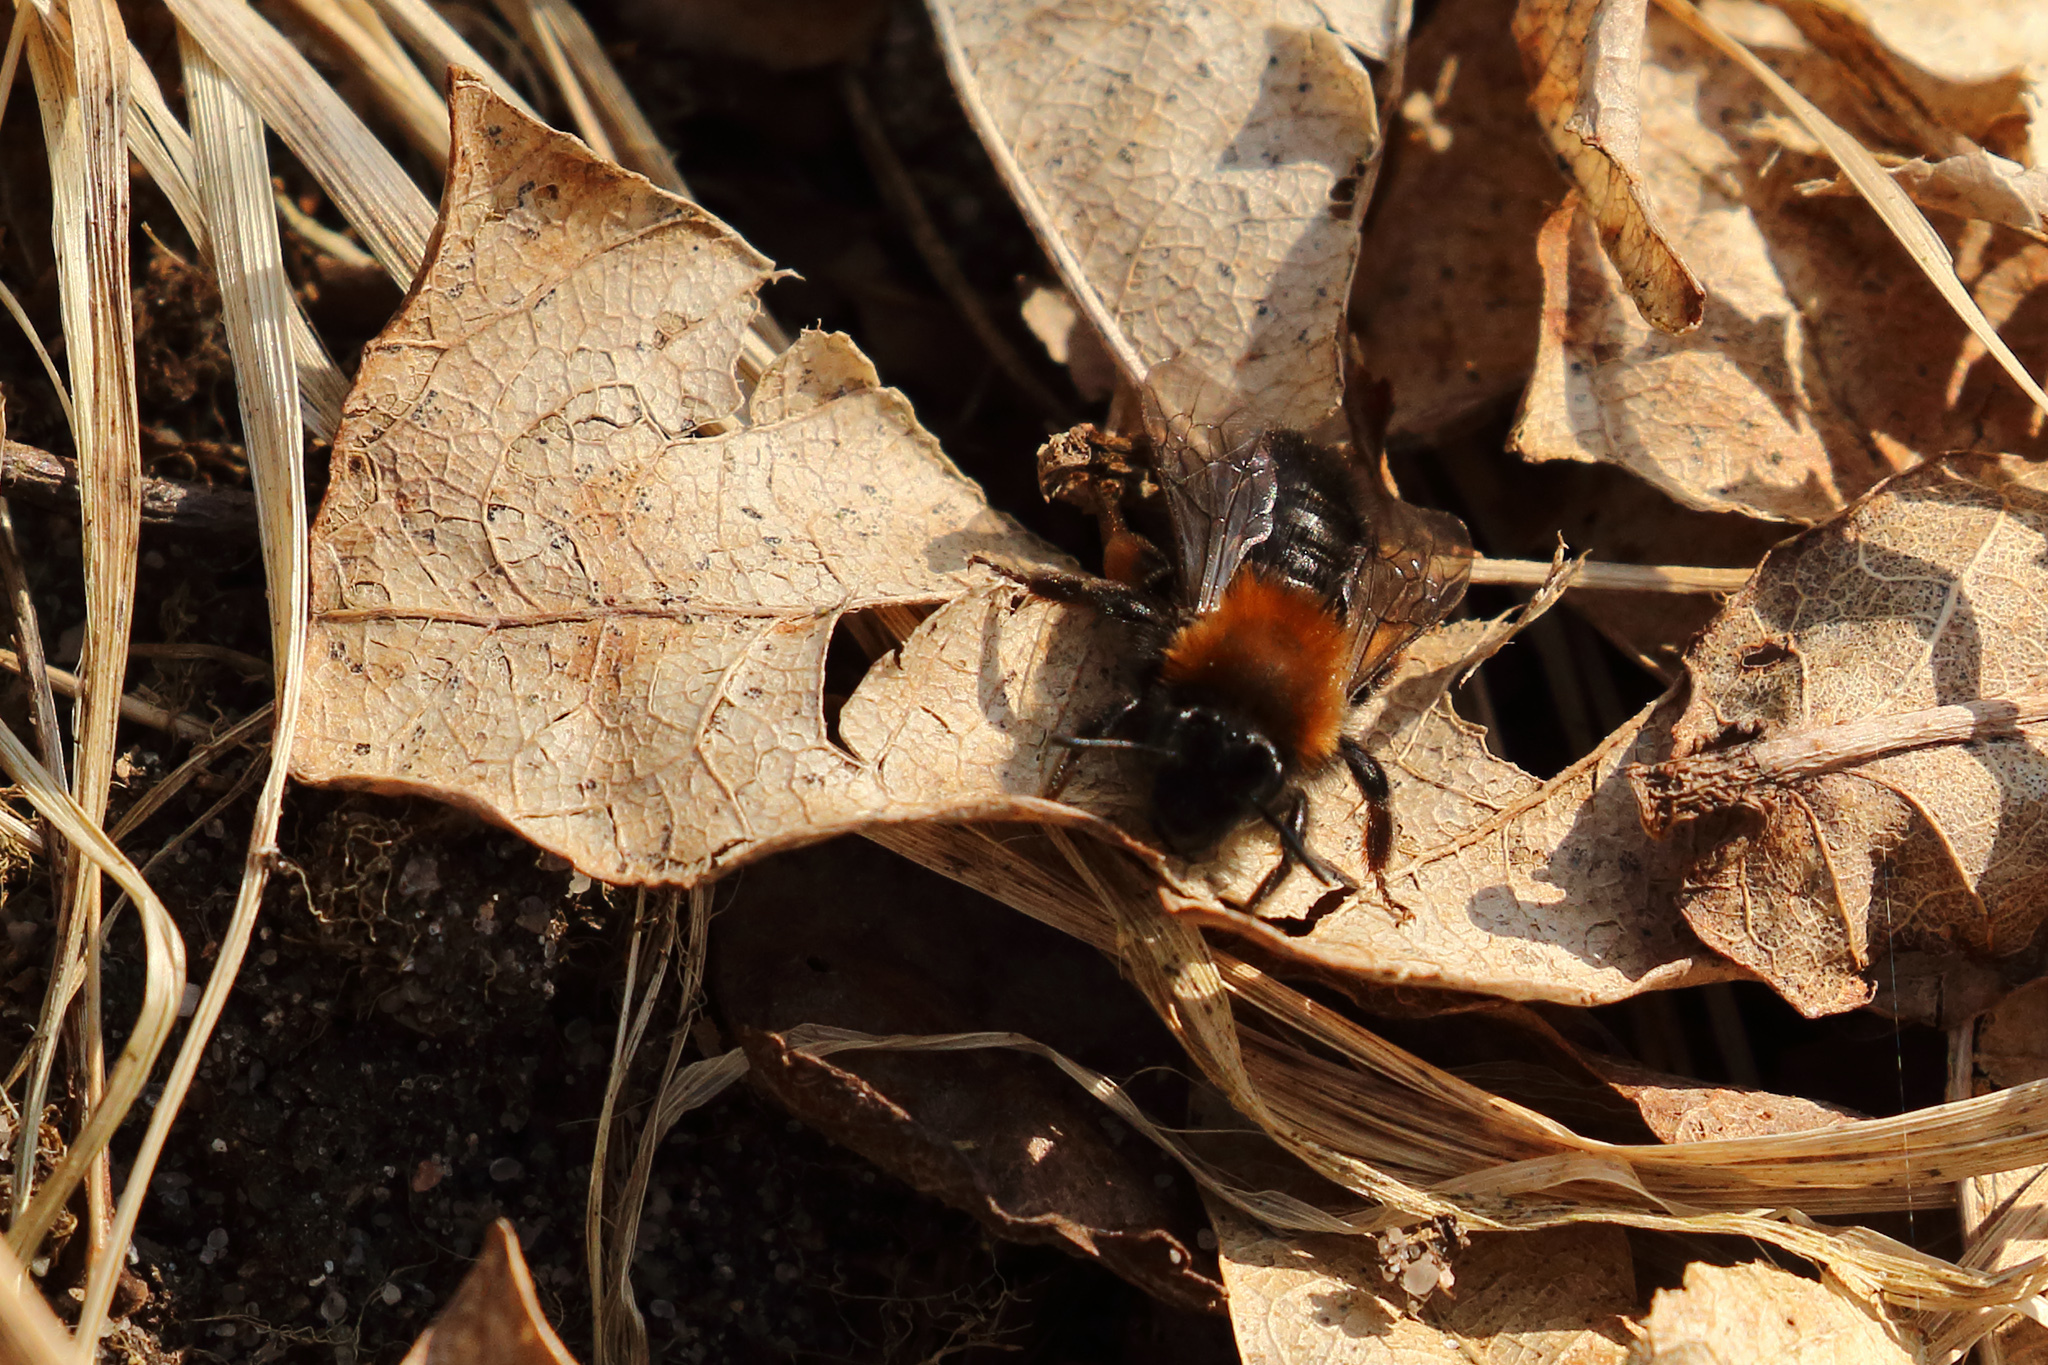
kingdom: Animalia
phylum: Arthropoda
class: Insecta
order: Hymenoptera
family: Andrenidae
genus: Andrena
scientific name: Andrena clarkella
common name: Clarke's mining bee
